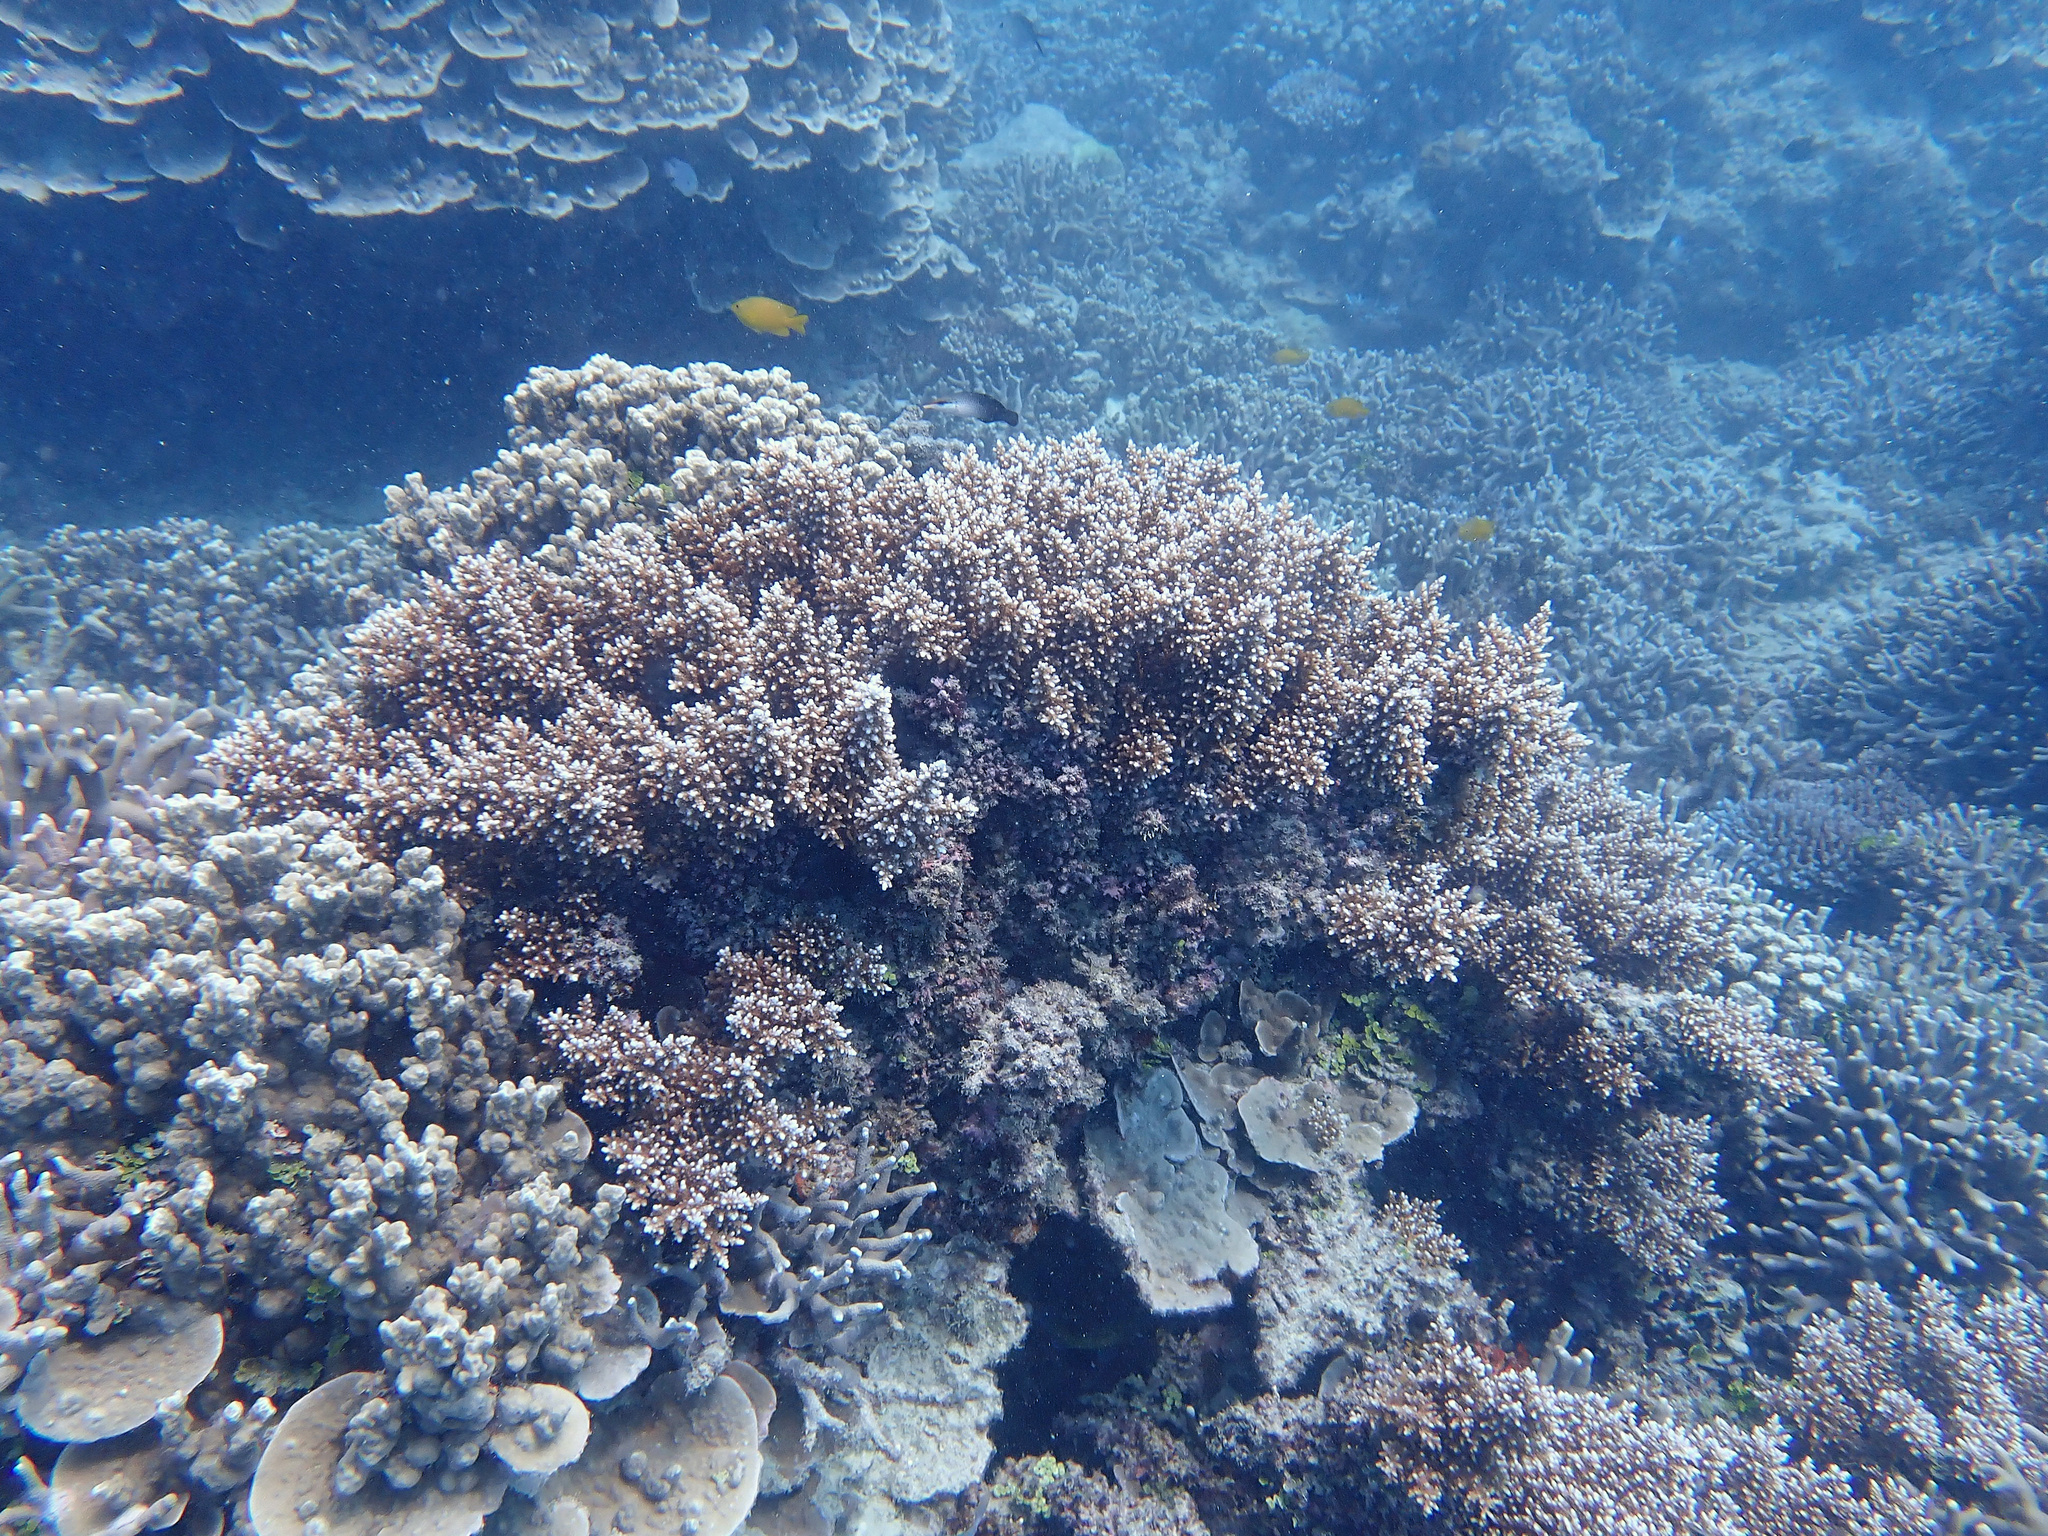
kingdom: Animalia
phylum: Cnidaria
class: Anthozoa
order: Scleractinia
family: Acroporidae
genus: Acropora
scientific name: Acropora florida
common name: Branch coral
